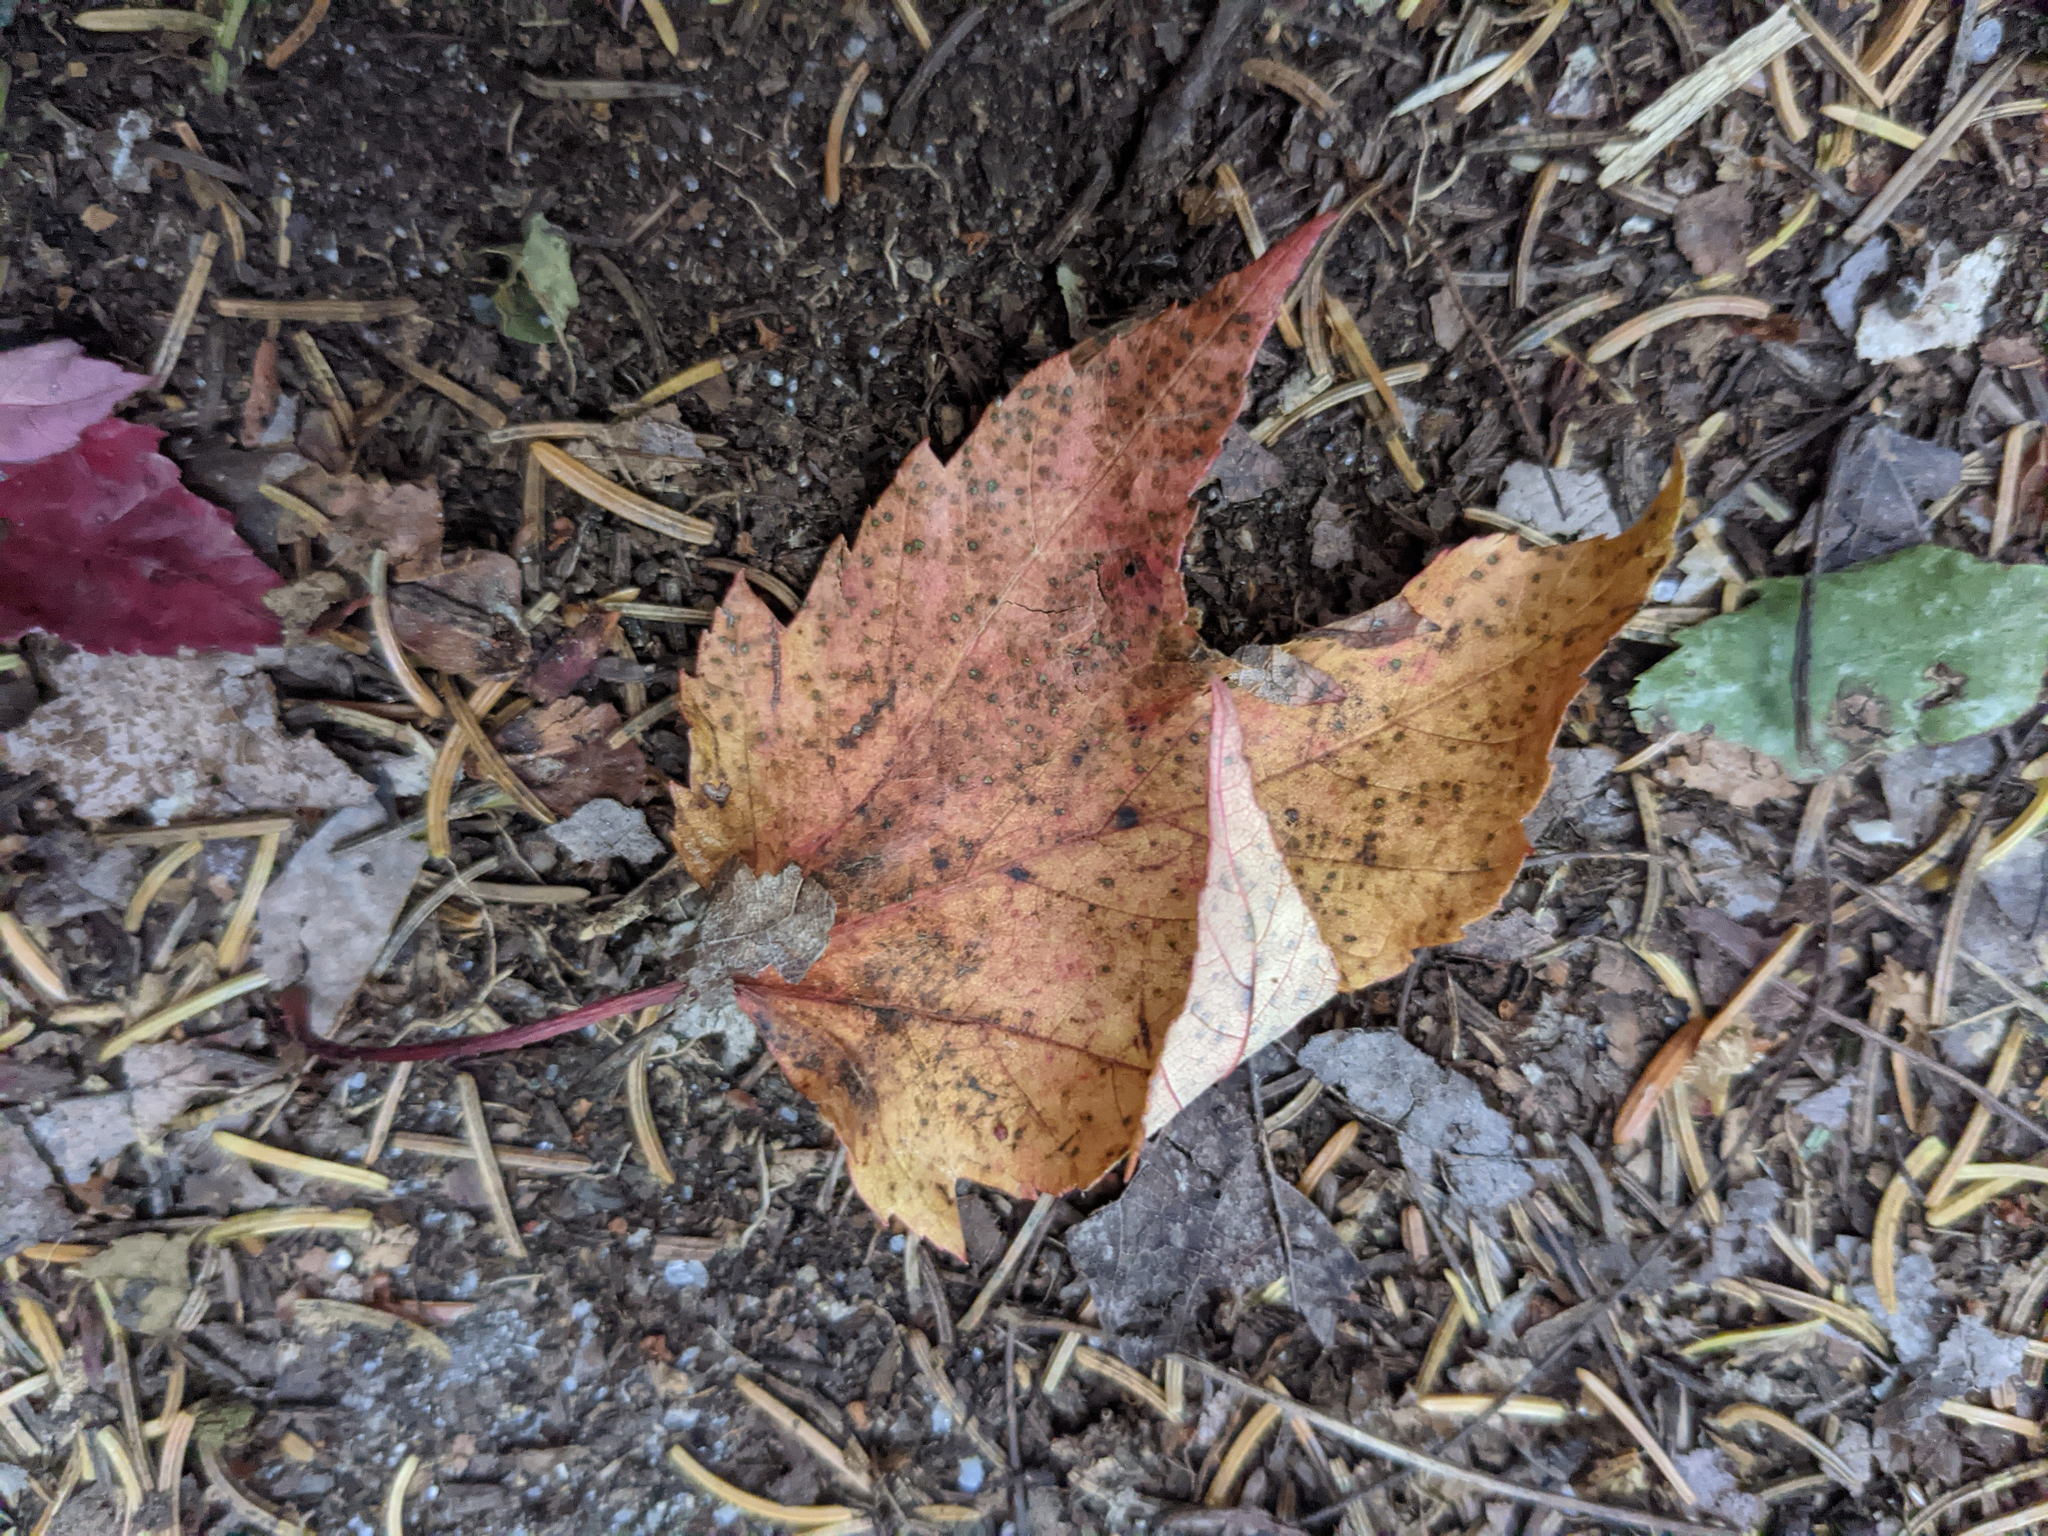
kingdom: Plantae
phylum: Tracheophyta
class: Magnoliopsida
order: Sapindales
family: Sapindaceae
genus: Acer
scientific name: Acer rubrum
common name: Red maple
